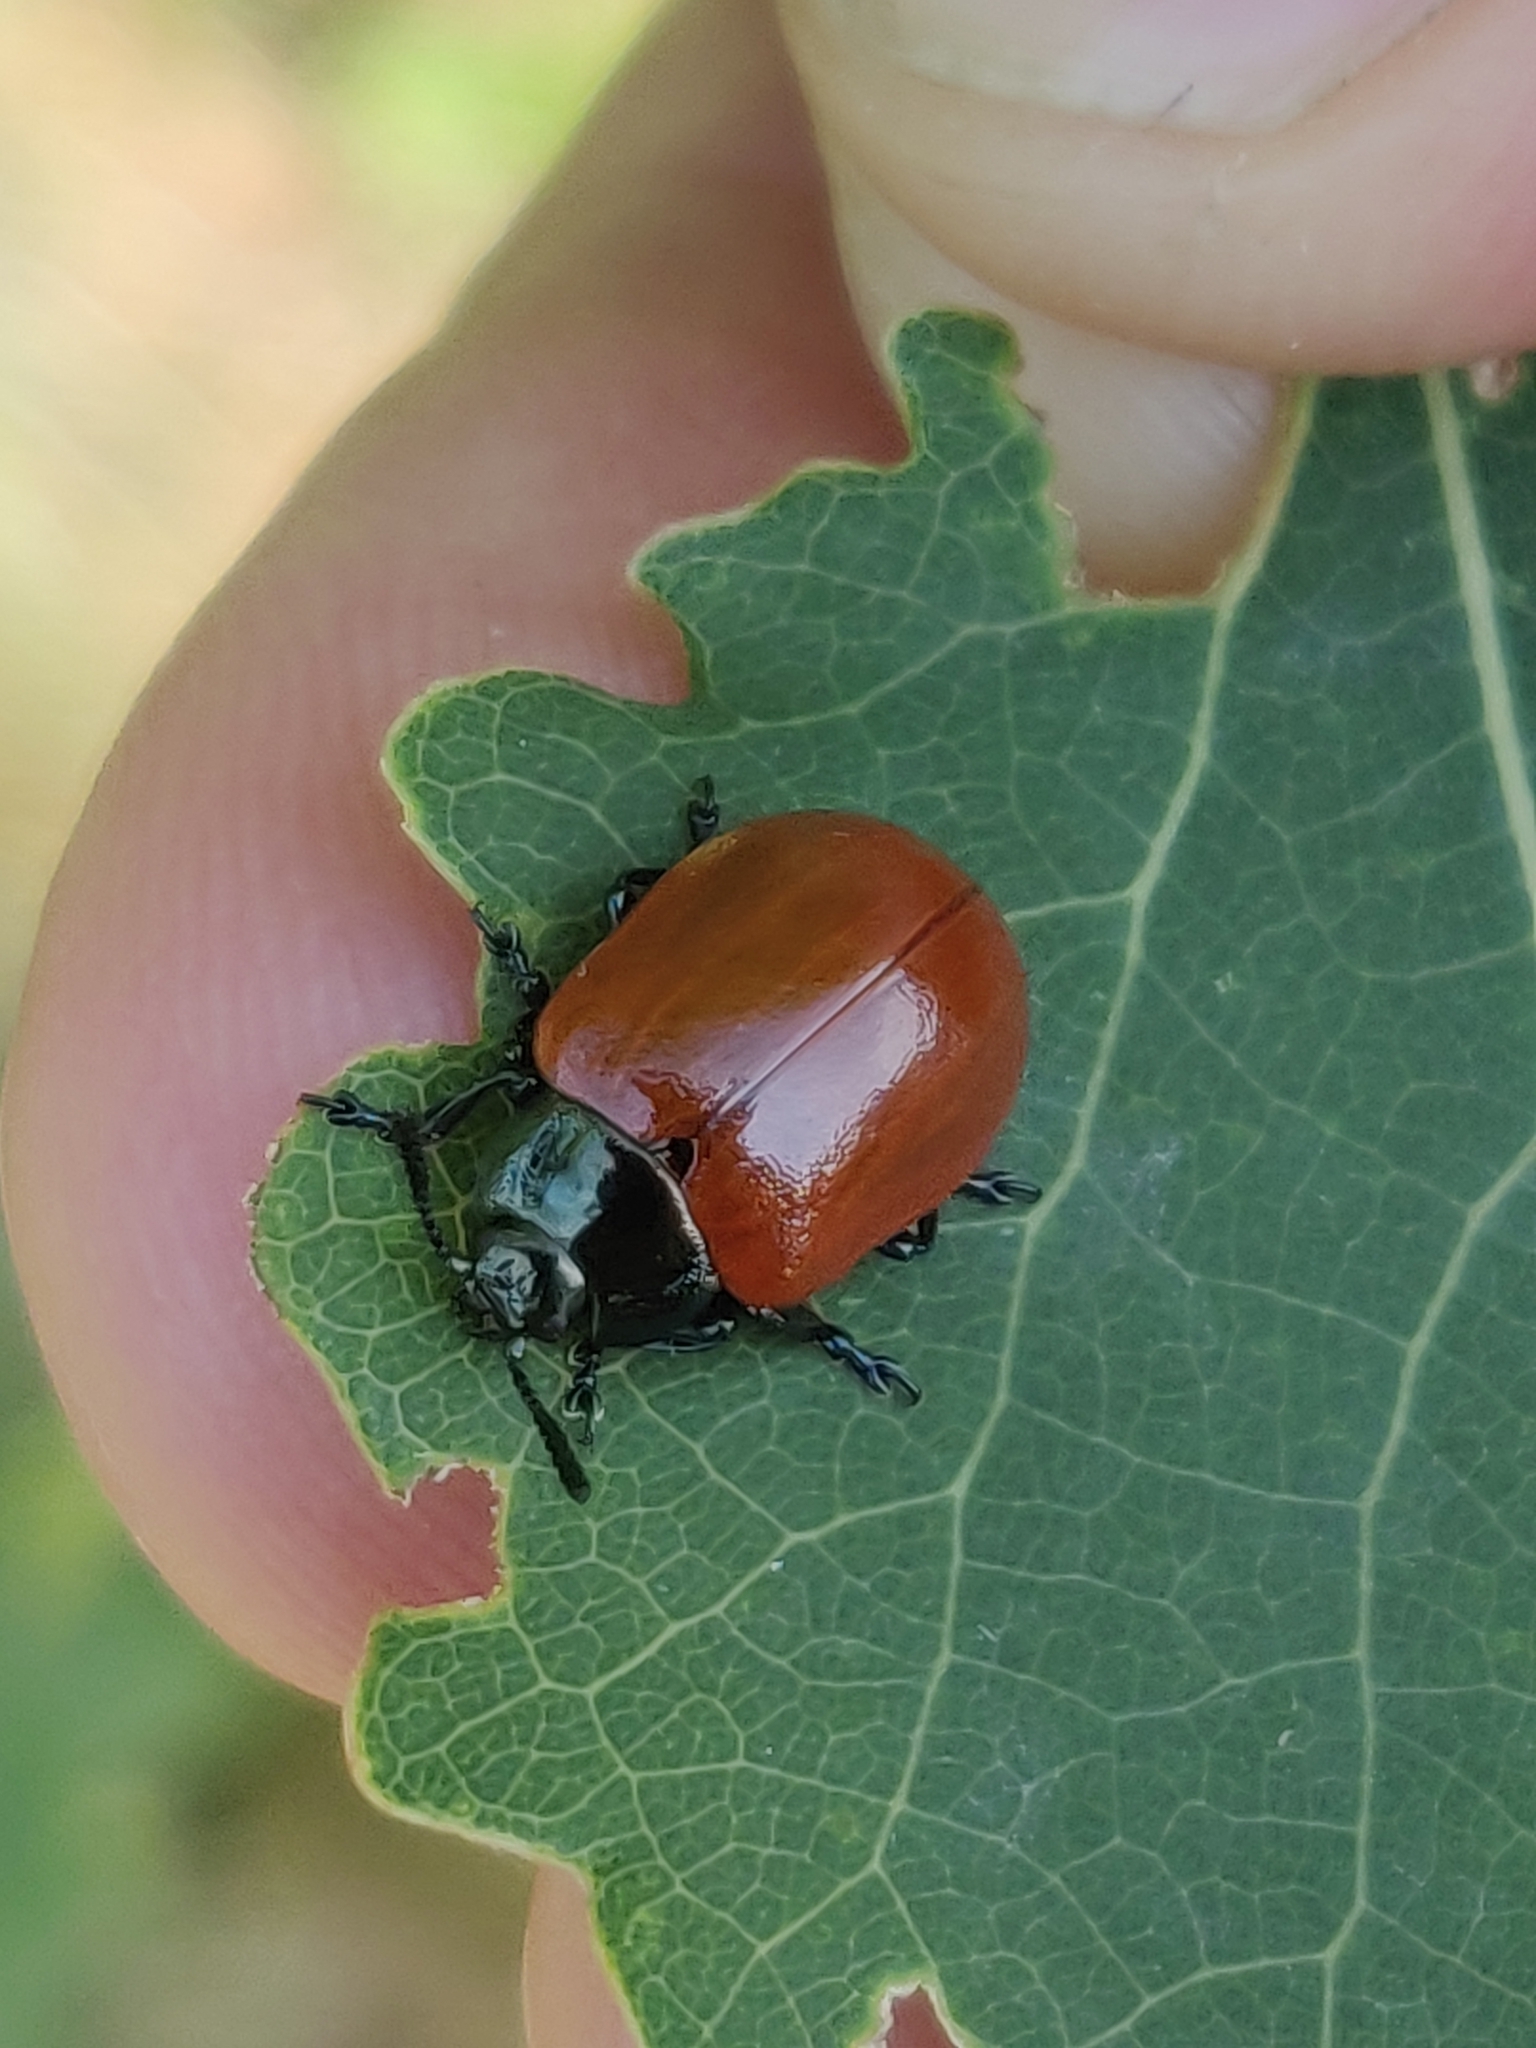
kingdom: Animalia
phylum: Arthropoda
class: Insecta
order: Coleoptera
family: Chrysomelidae
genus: Chrysomela
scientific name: Chrysomela populi
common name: Red poplar leaf beetle
